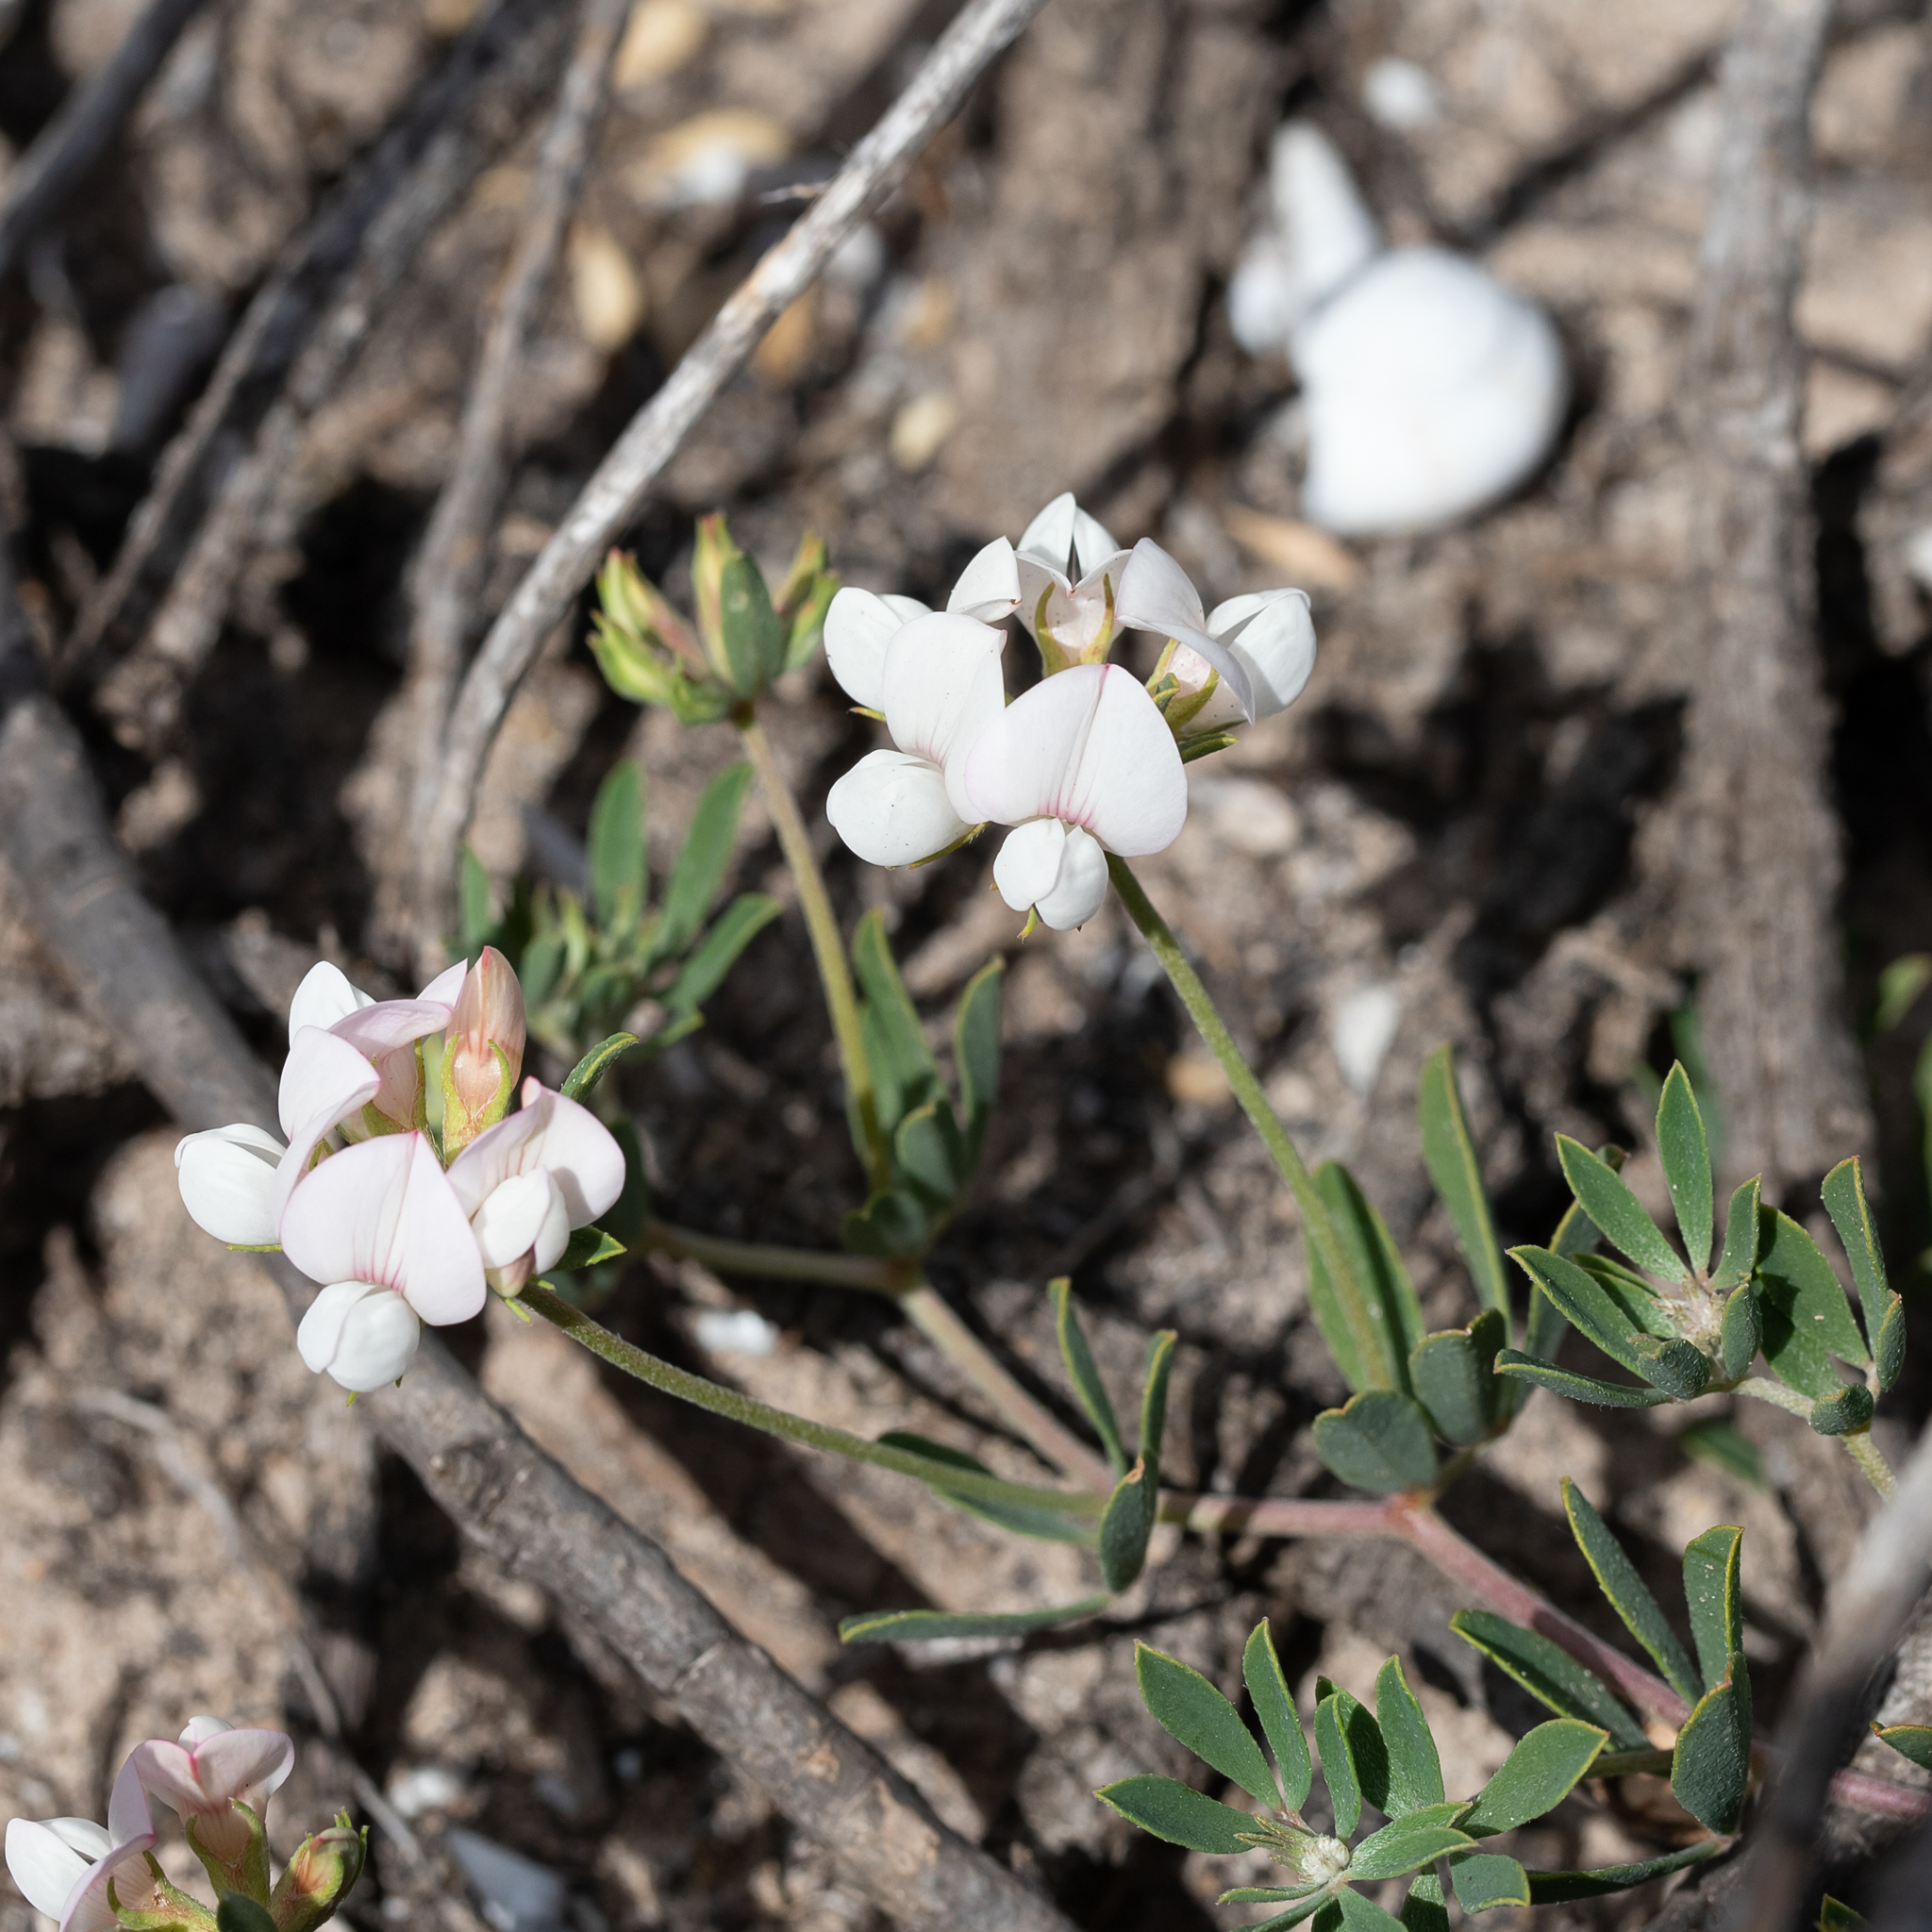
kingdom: Plantae
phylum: Tracheophyta
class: Magnoliopsida
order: Fabales
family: Fabaceae
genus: Lotus
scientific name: Lotus australis
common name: Australian trefoil
